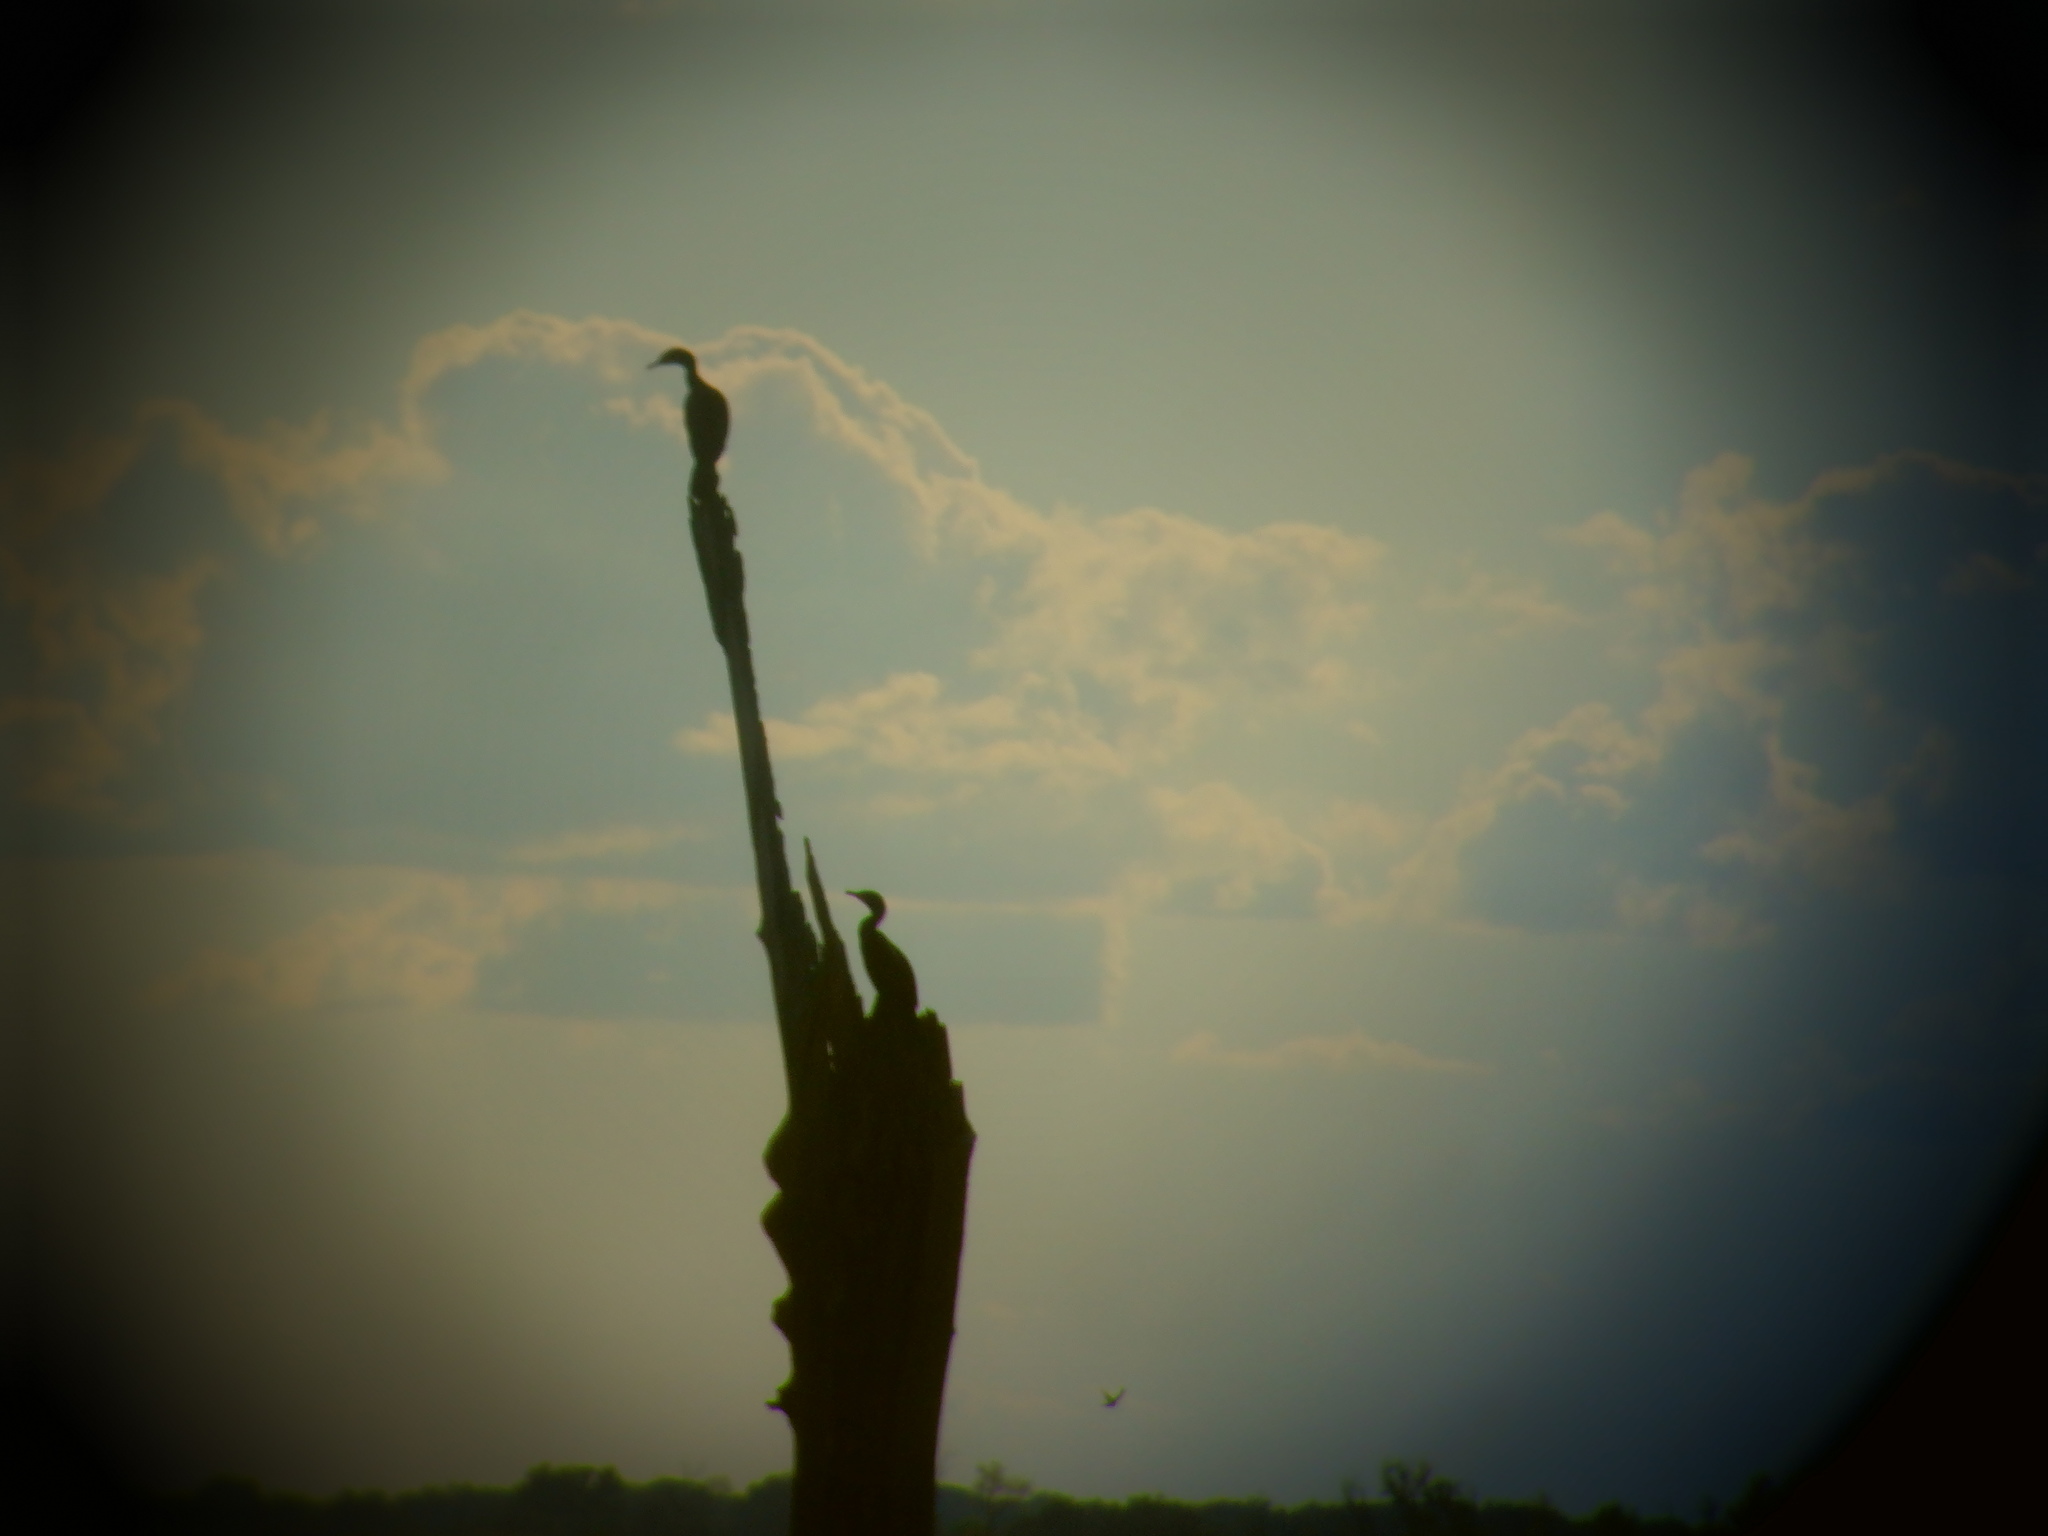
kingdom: Animalia
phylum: Chordata
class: Aves
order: Suliformes
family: Phalacrocoracidae
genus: Phalacrocorax
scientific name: Phalacrocorax auritus
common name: Double-crested cormorant
